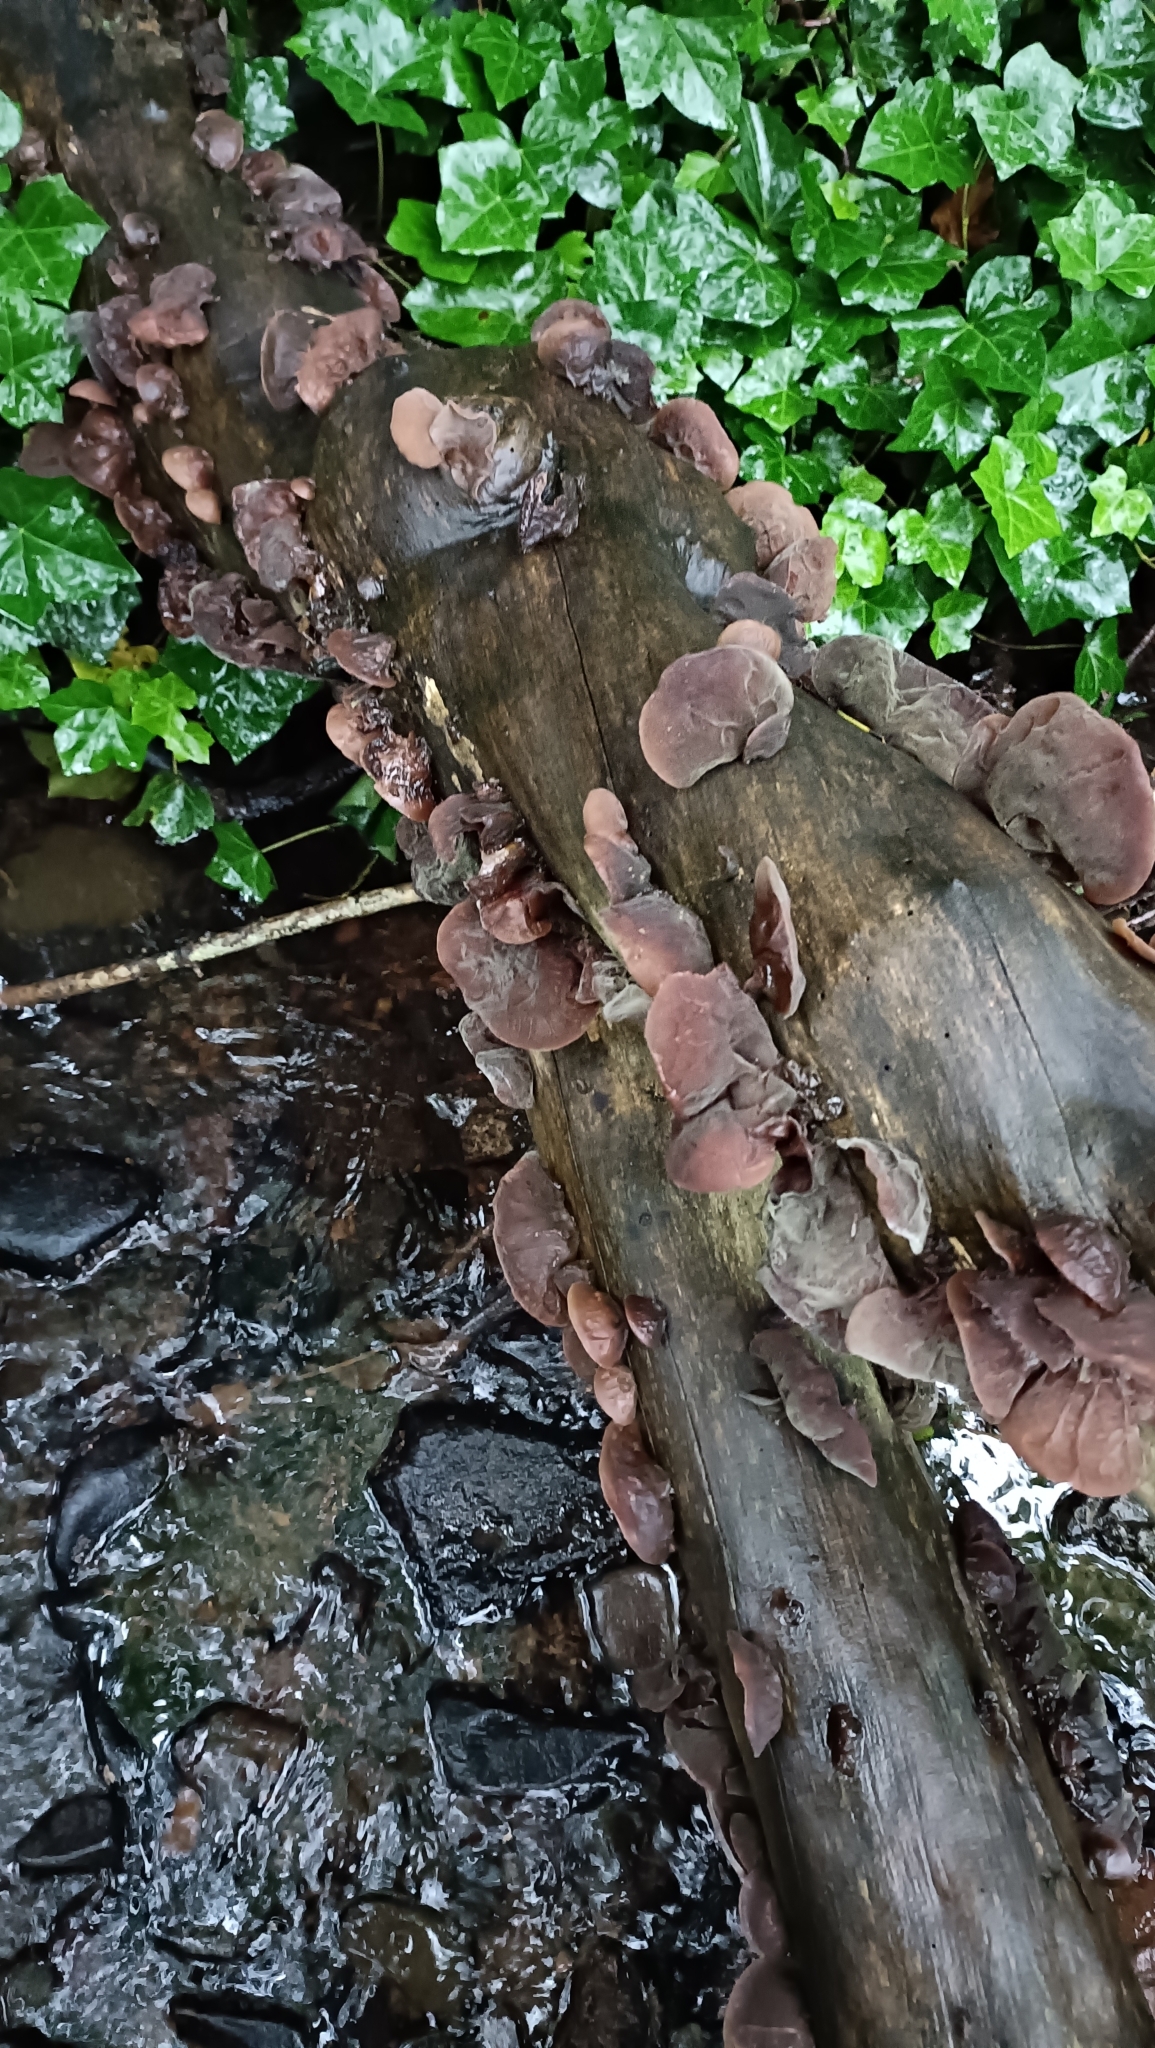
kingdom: Fungi
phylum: Basidiomycota
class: Agaricomycetes
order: Auriculariales
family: Auriculariaceae
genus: Auricularia
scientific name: Auricularia auricula-judae
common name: Jelly ear
